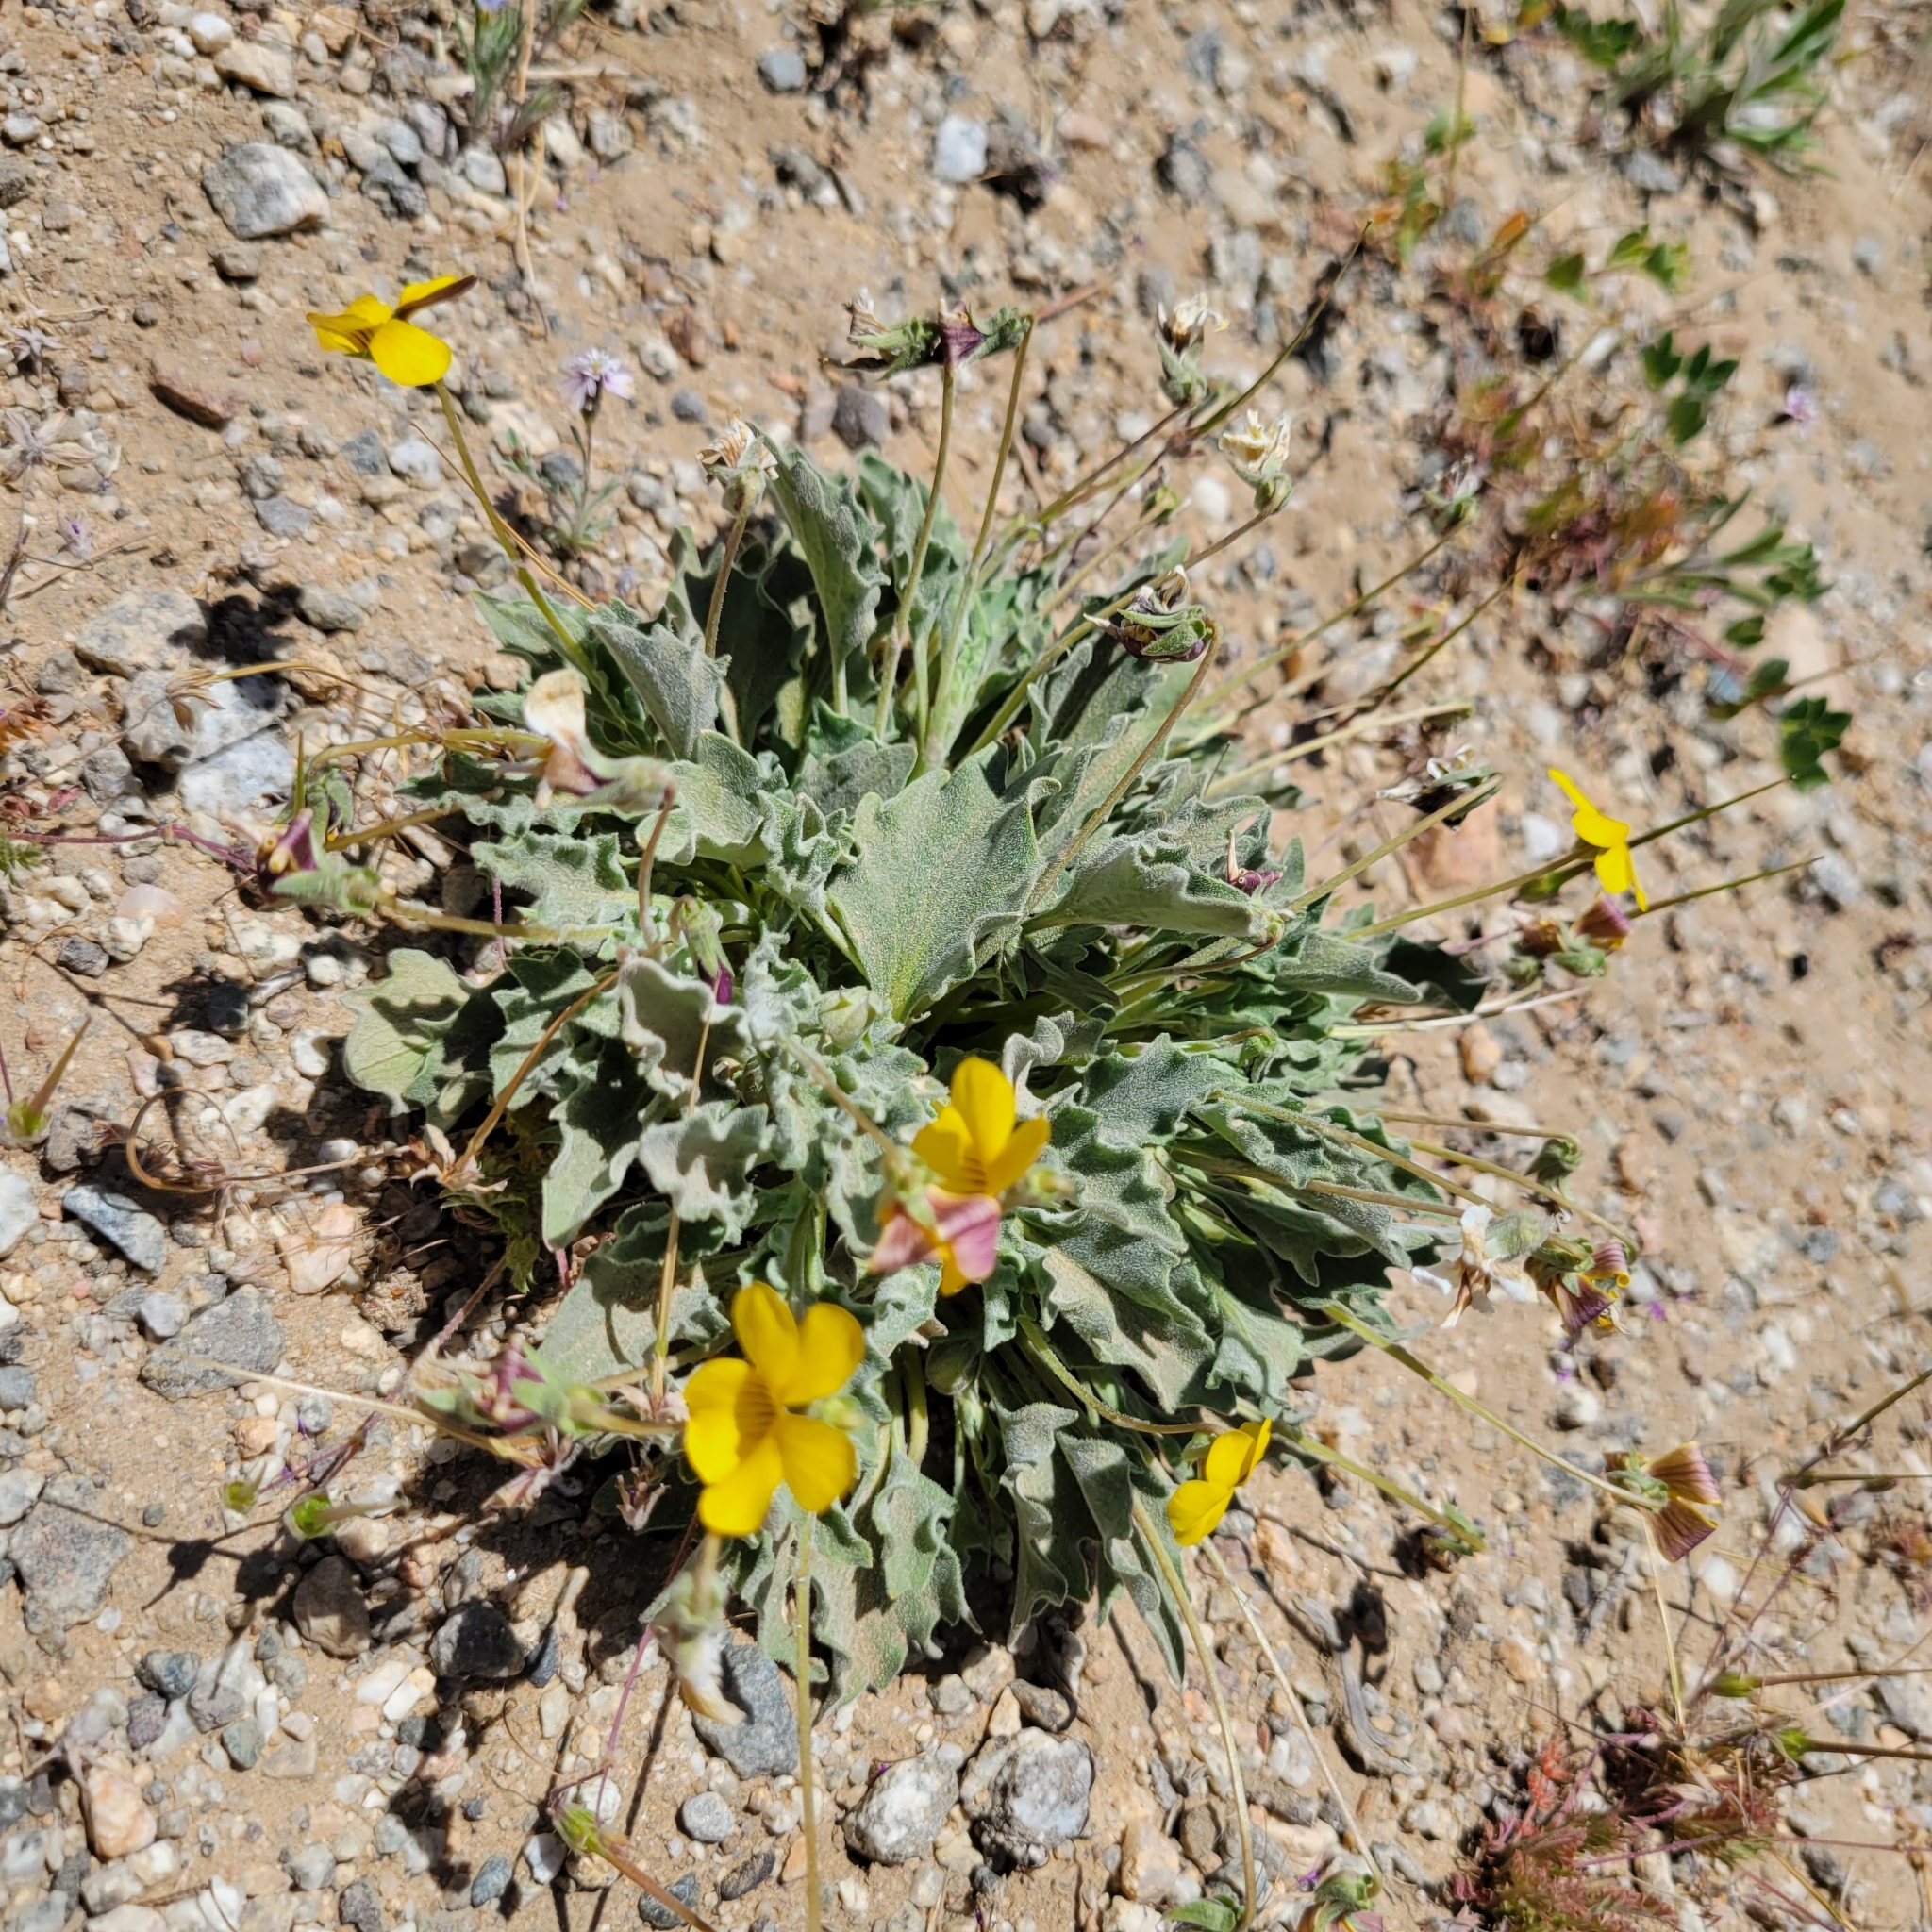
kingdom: Plantae
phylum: Tracheophyta
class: Magnoliopsida
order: Malpighiales
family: Violaceae
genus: Viola
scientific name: Viola purpurea
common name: Pine violet
